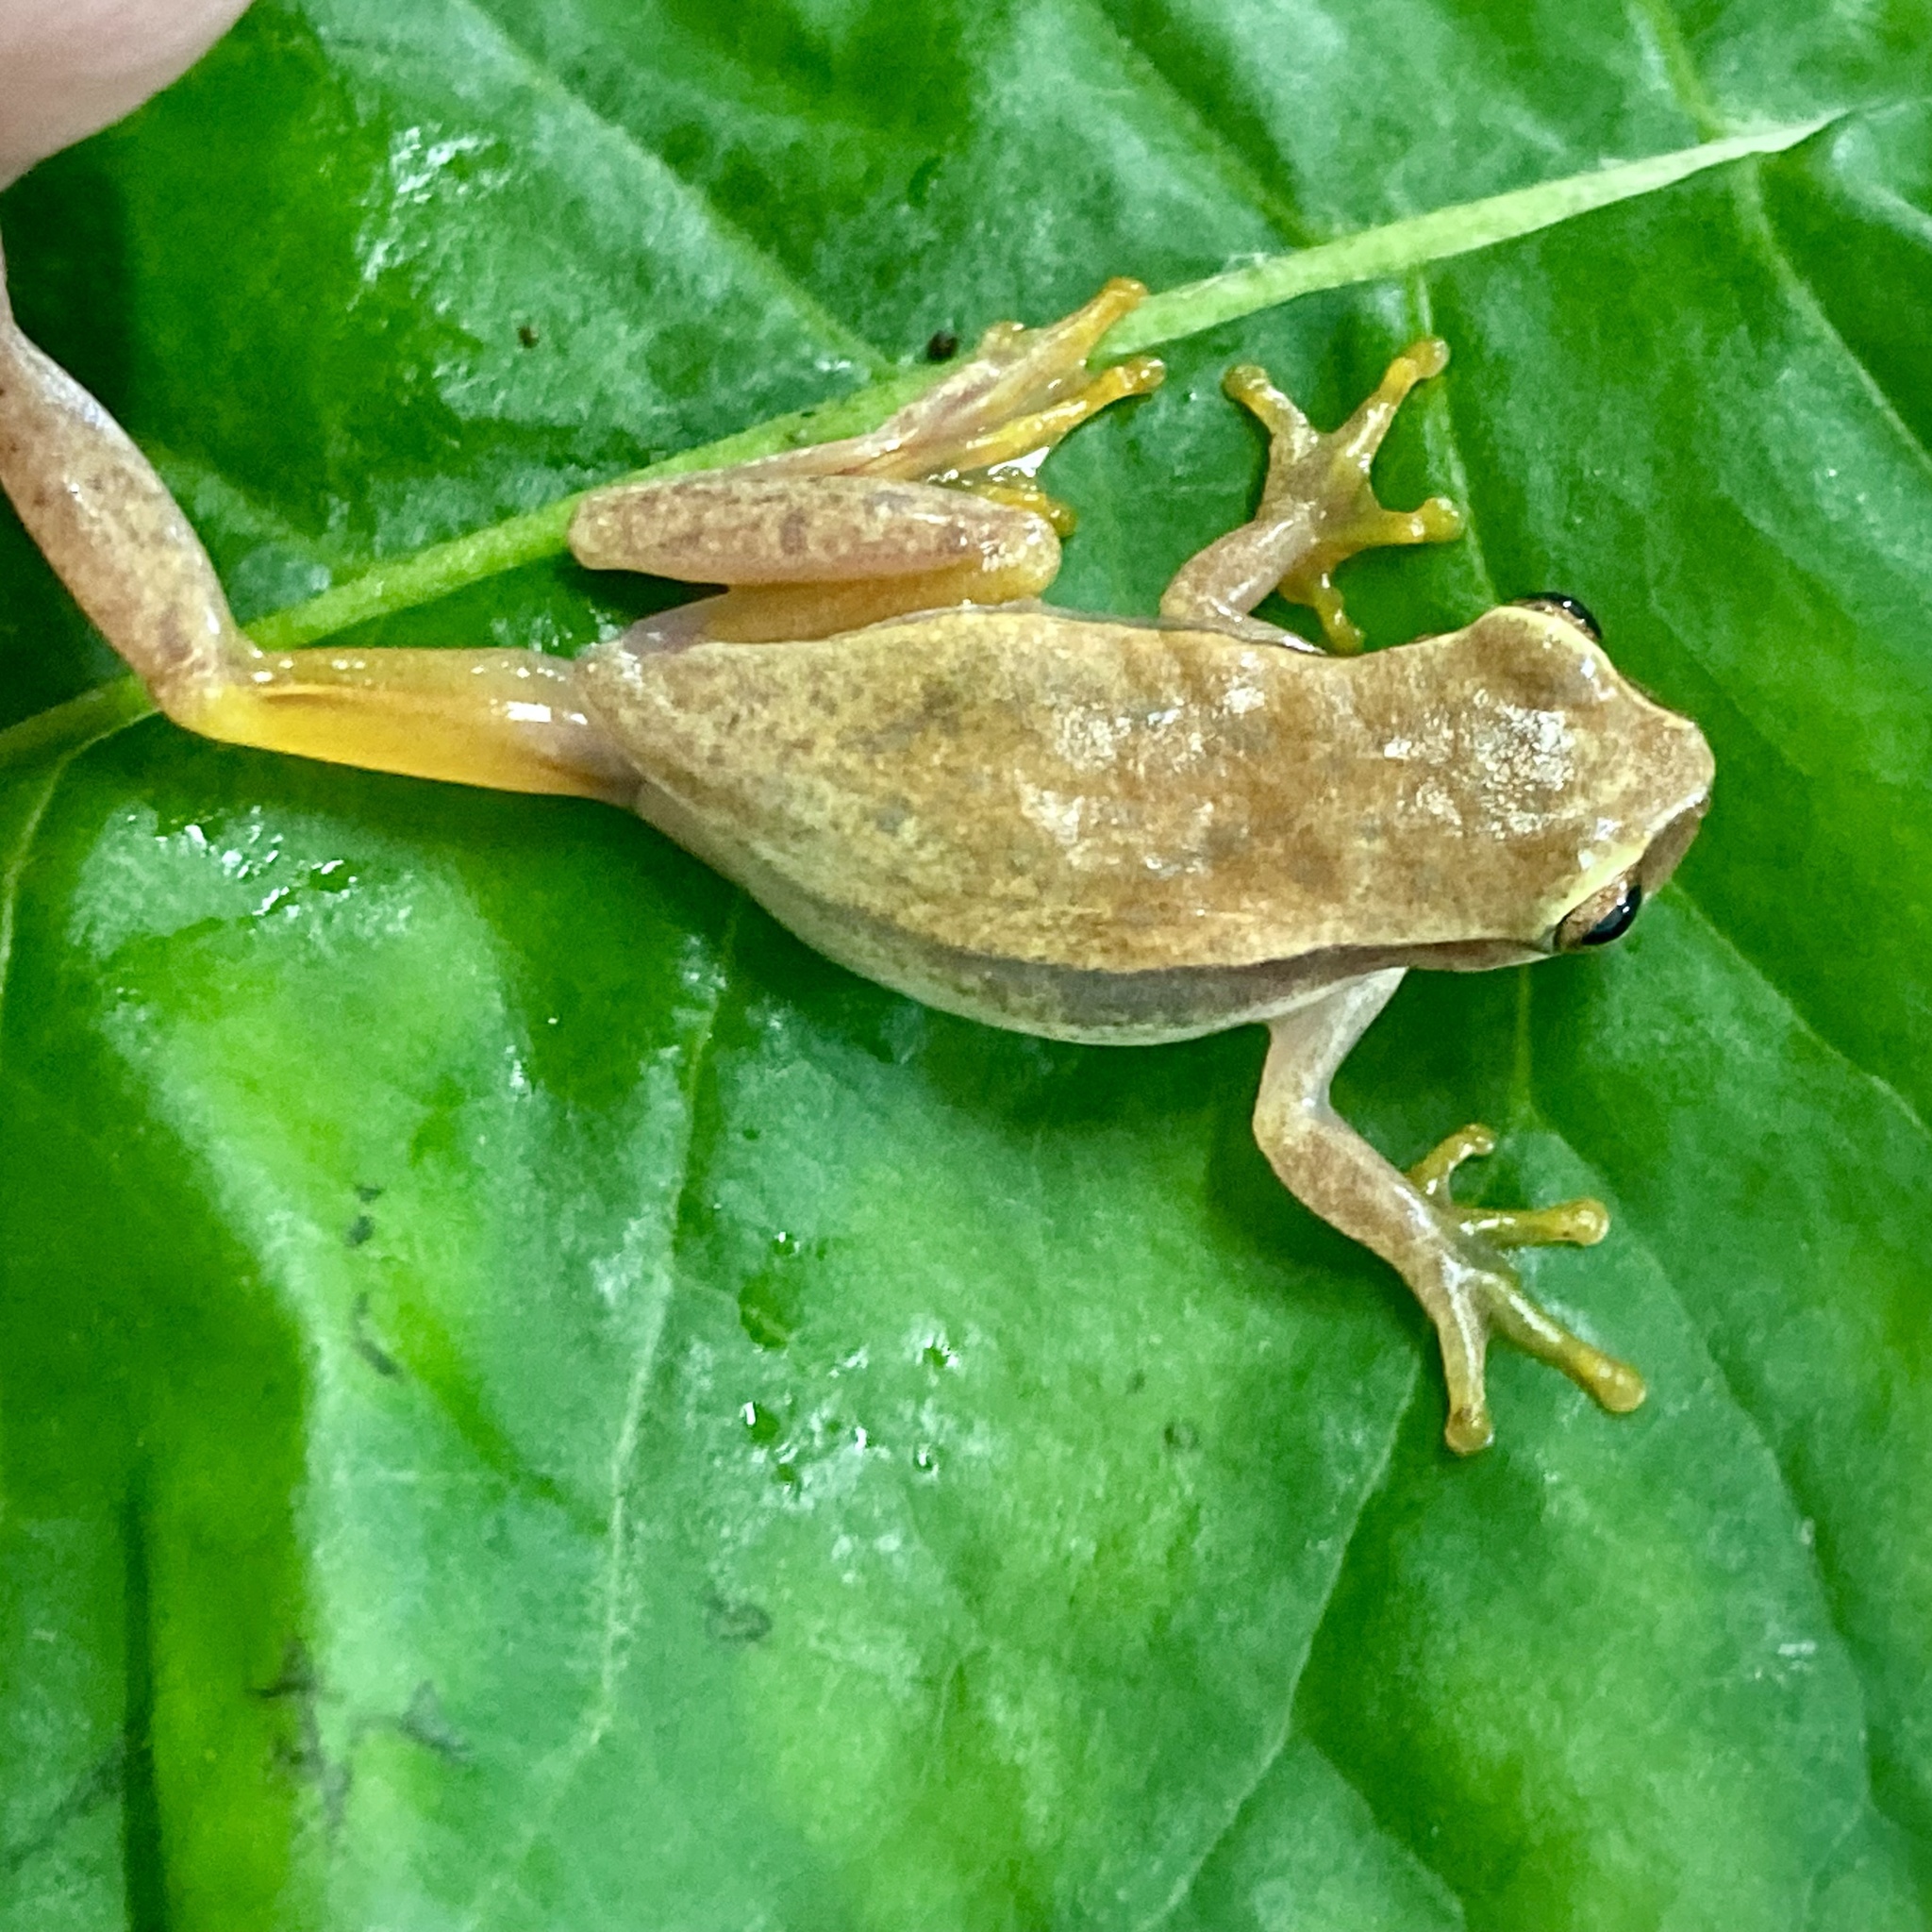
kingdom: Animalia
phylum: Chordata
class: Amphibia
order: Anura
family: Hylidae
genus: Dendropsophus
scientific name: Dendropsophus mathiassoni
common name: Mathiasson's treefrog
